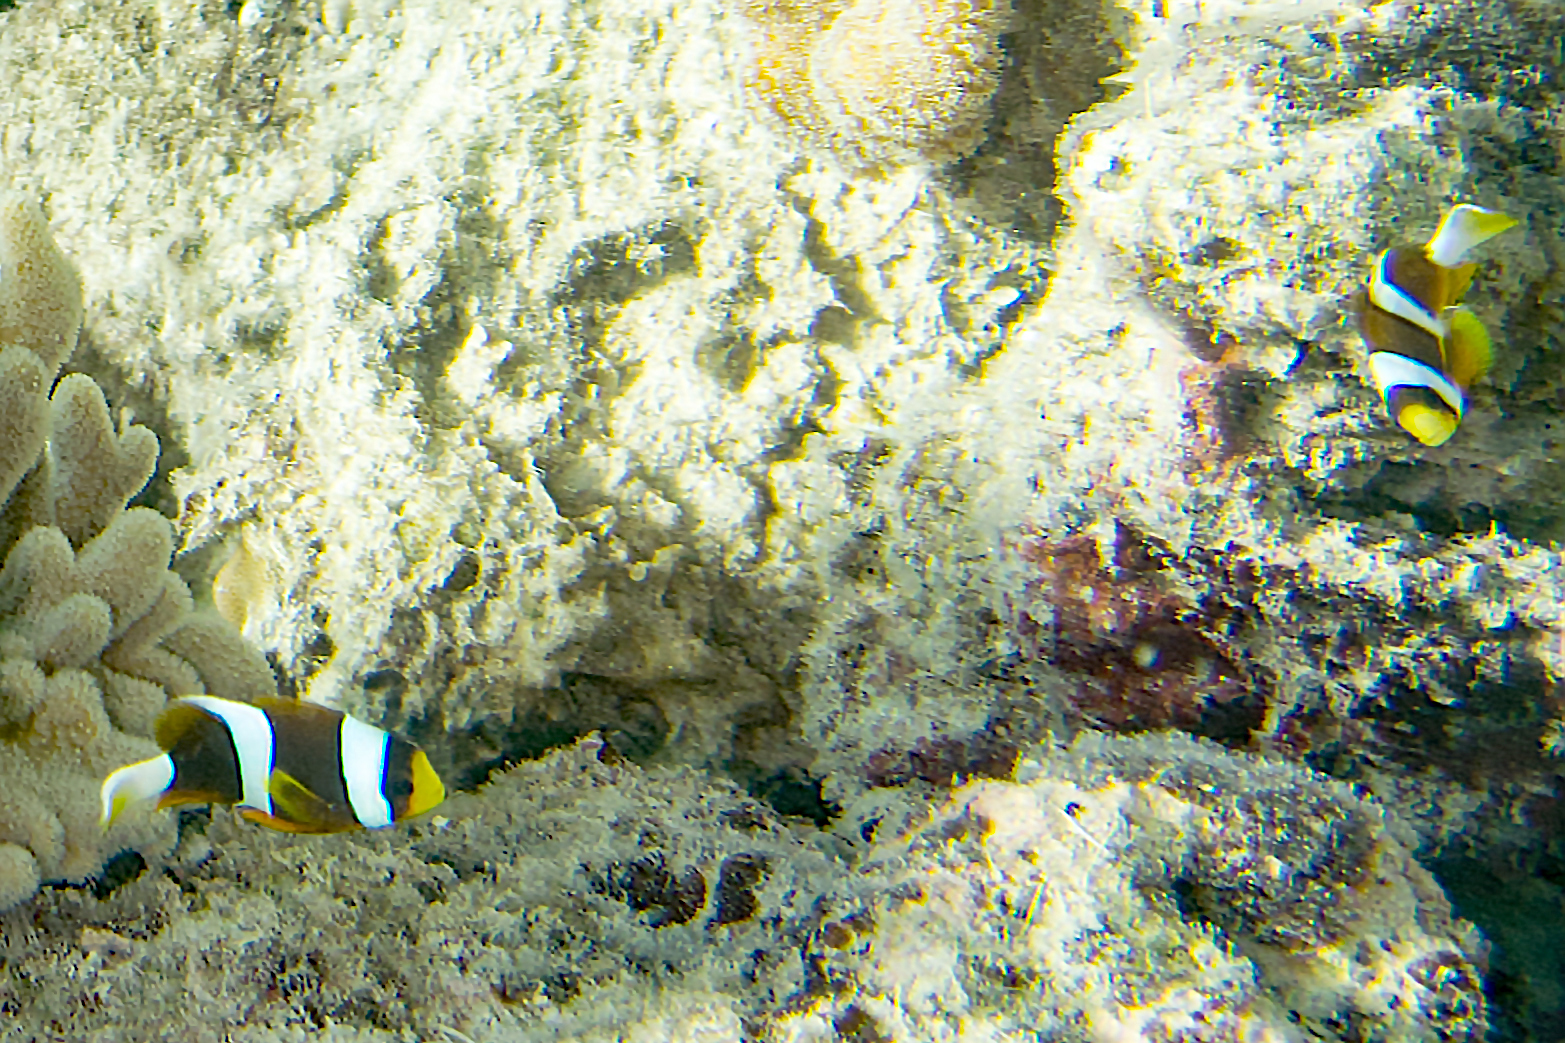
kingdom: Animalia
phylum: Chordata
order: Perciformes
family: Pomacentridae
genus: Amphiprion
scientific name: Amphiprion clarkii
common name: Clark's anemonefish
